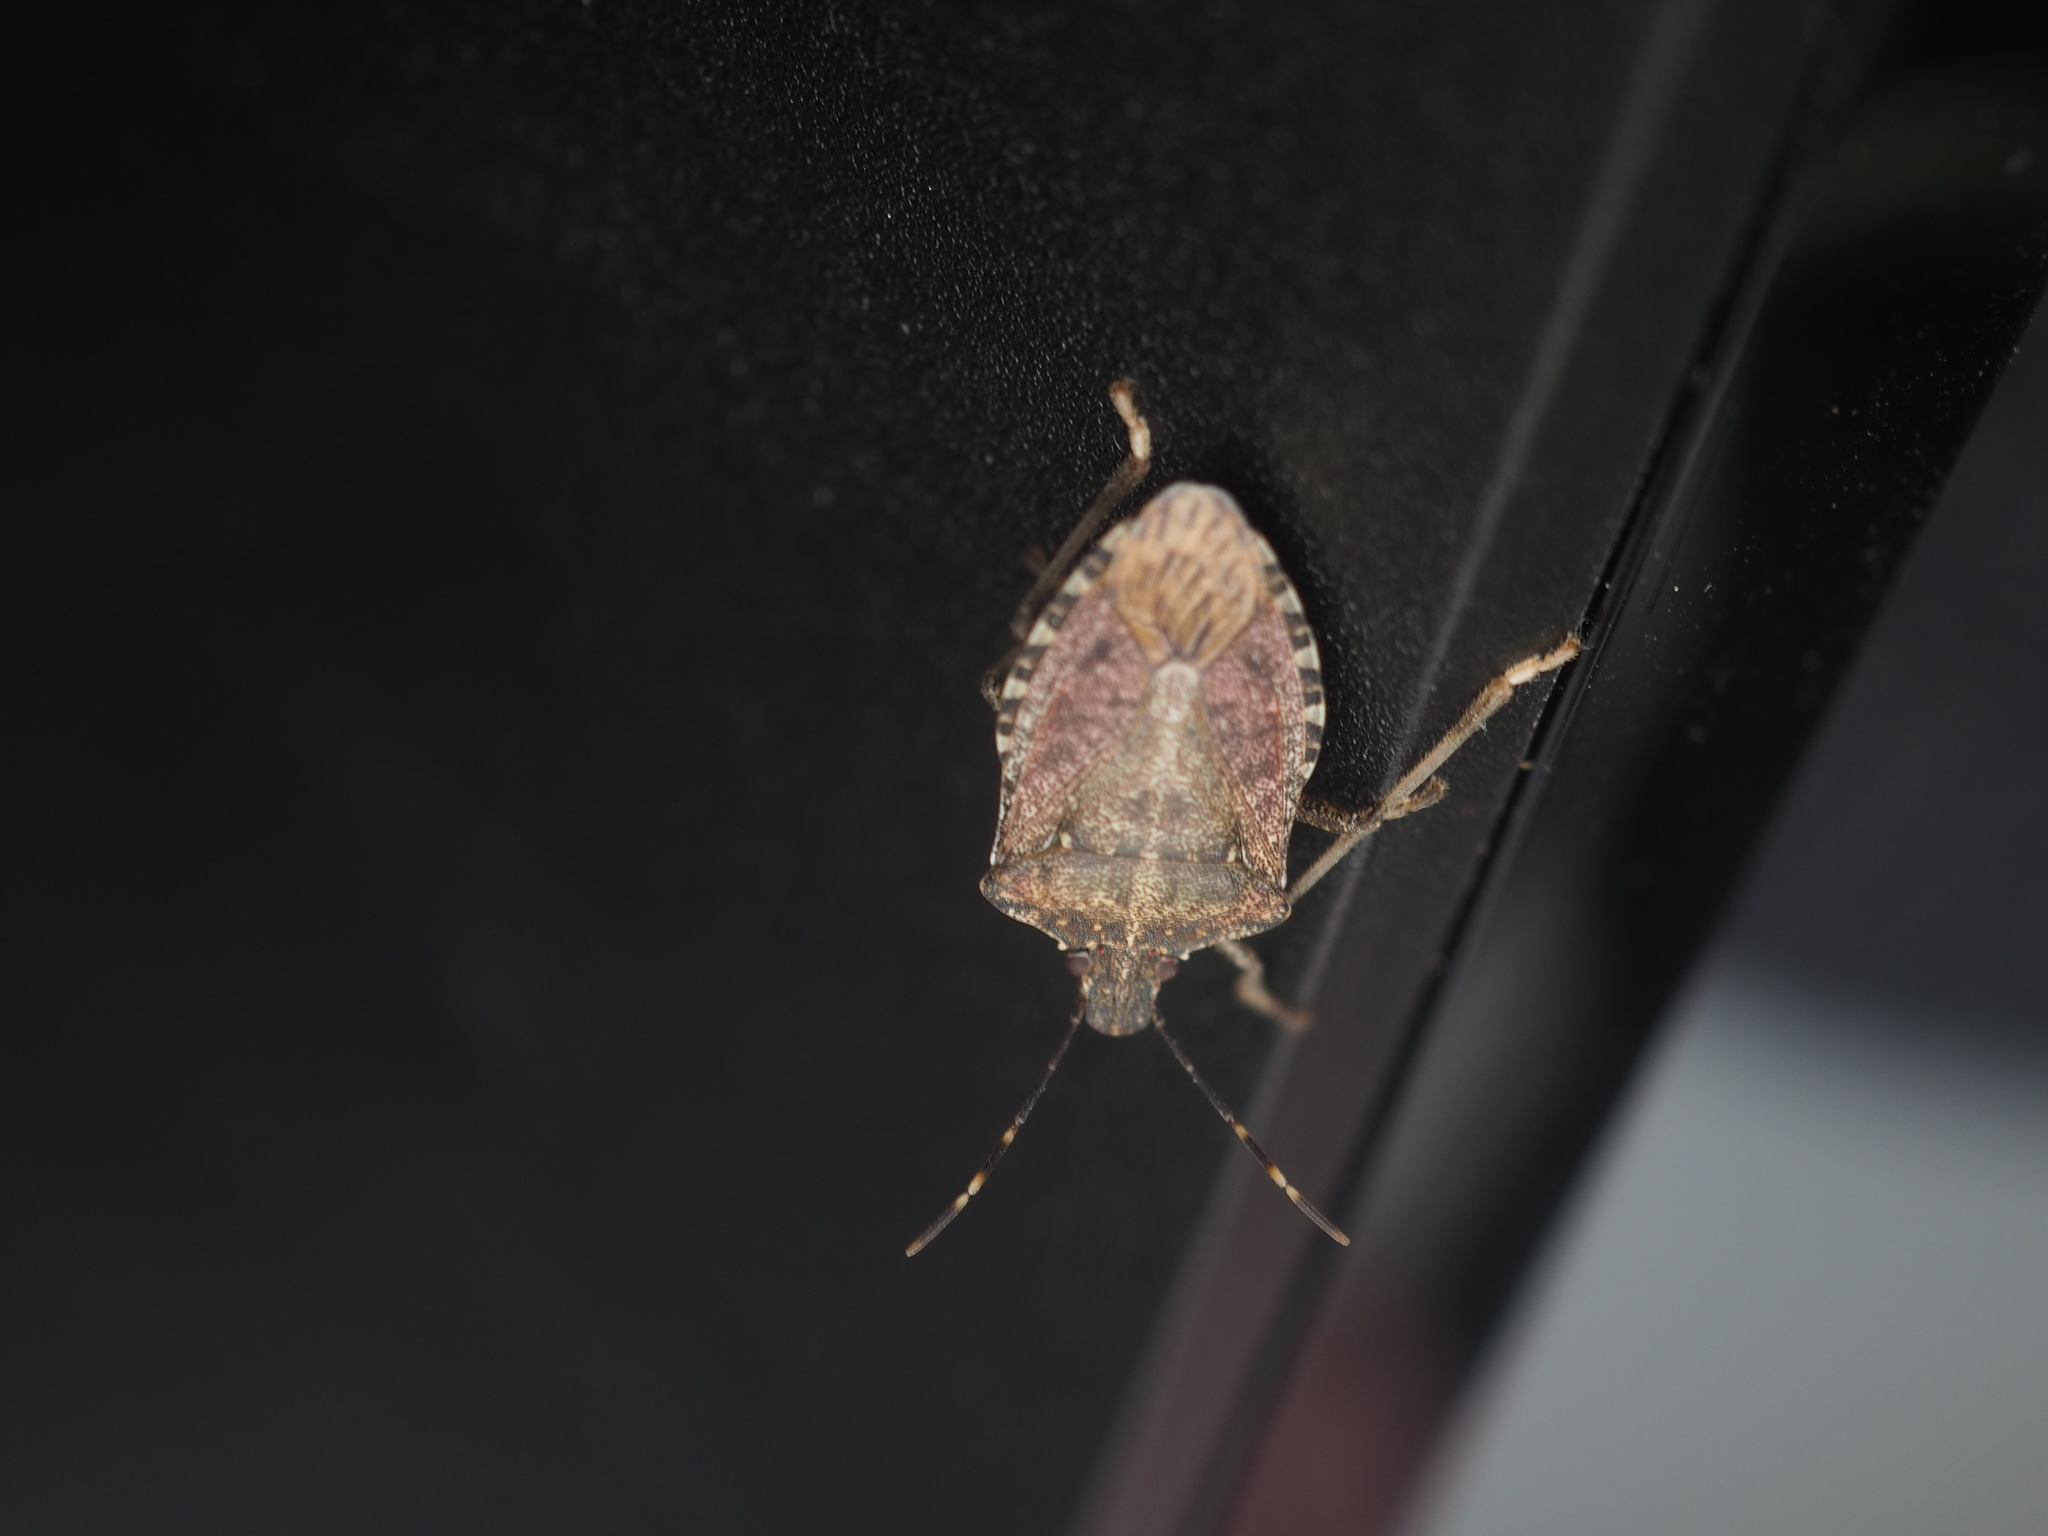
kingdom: Animalia
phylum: Arthropoda
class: Insecta
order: Hemiptera
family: Pentatomidae
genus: Halyomorpha
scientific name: Halyomorpha halys
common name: Brown marmorated stink bug
